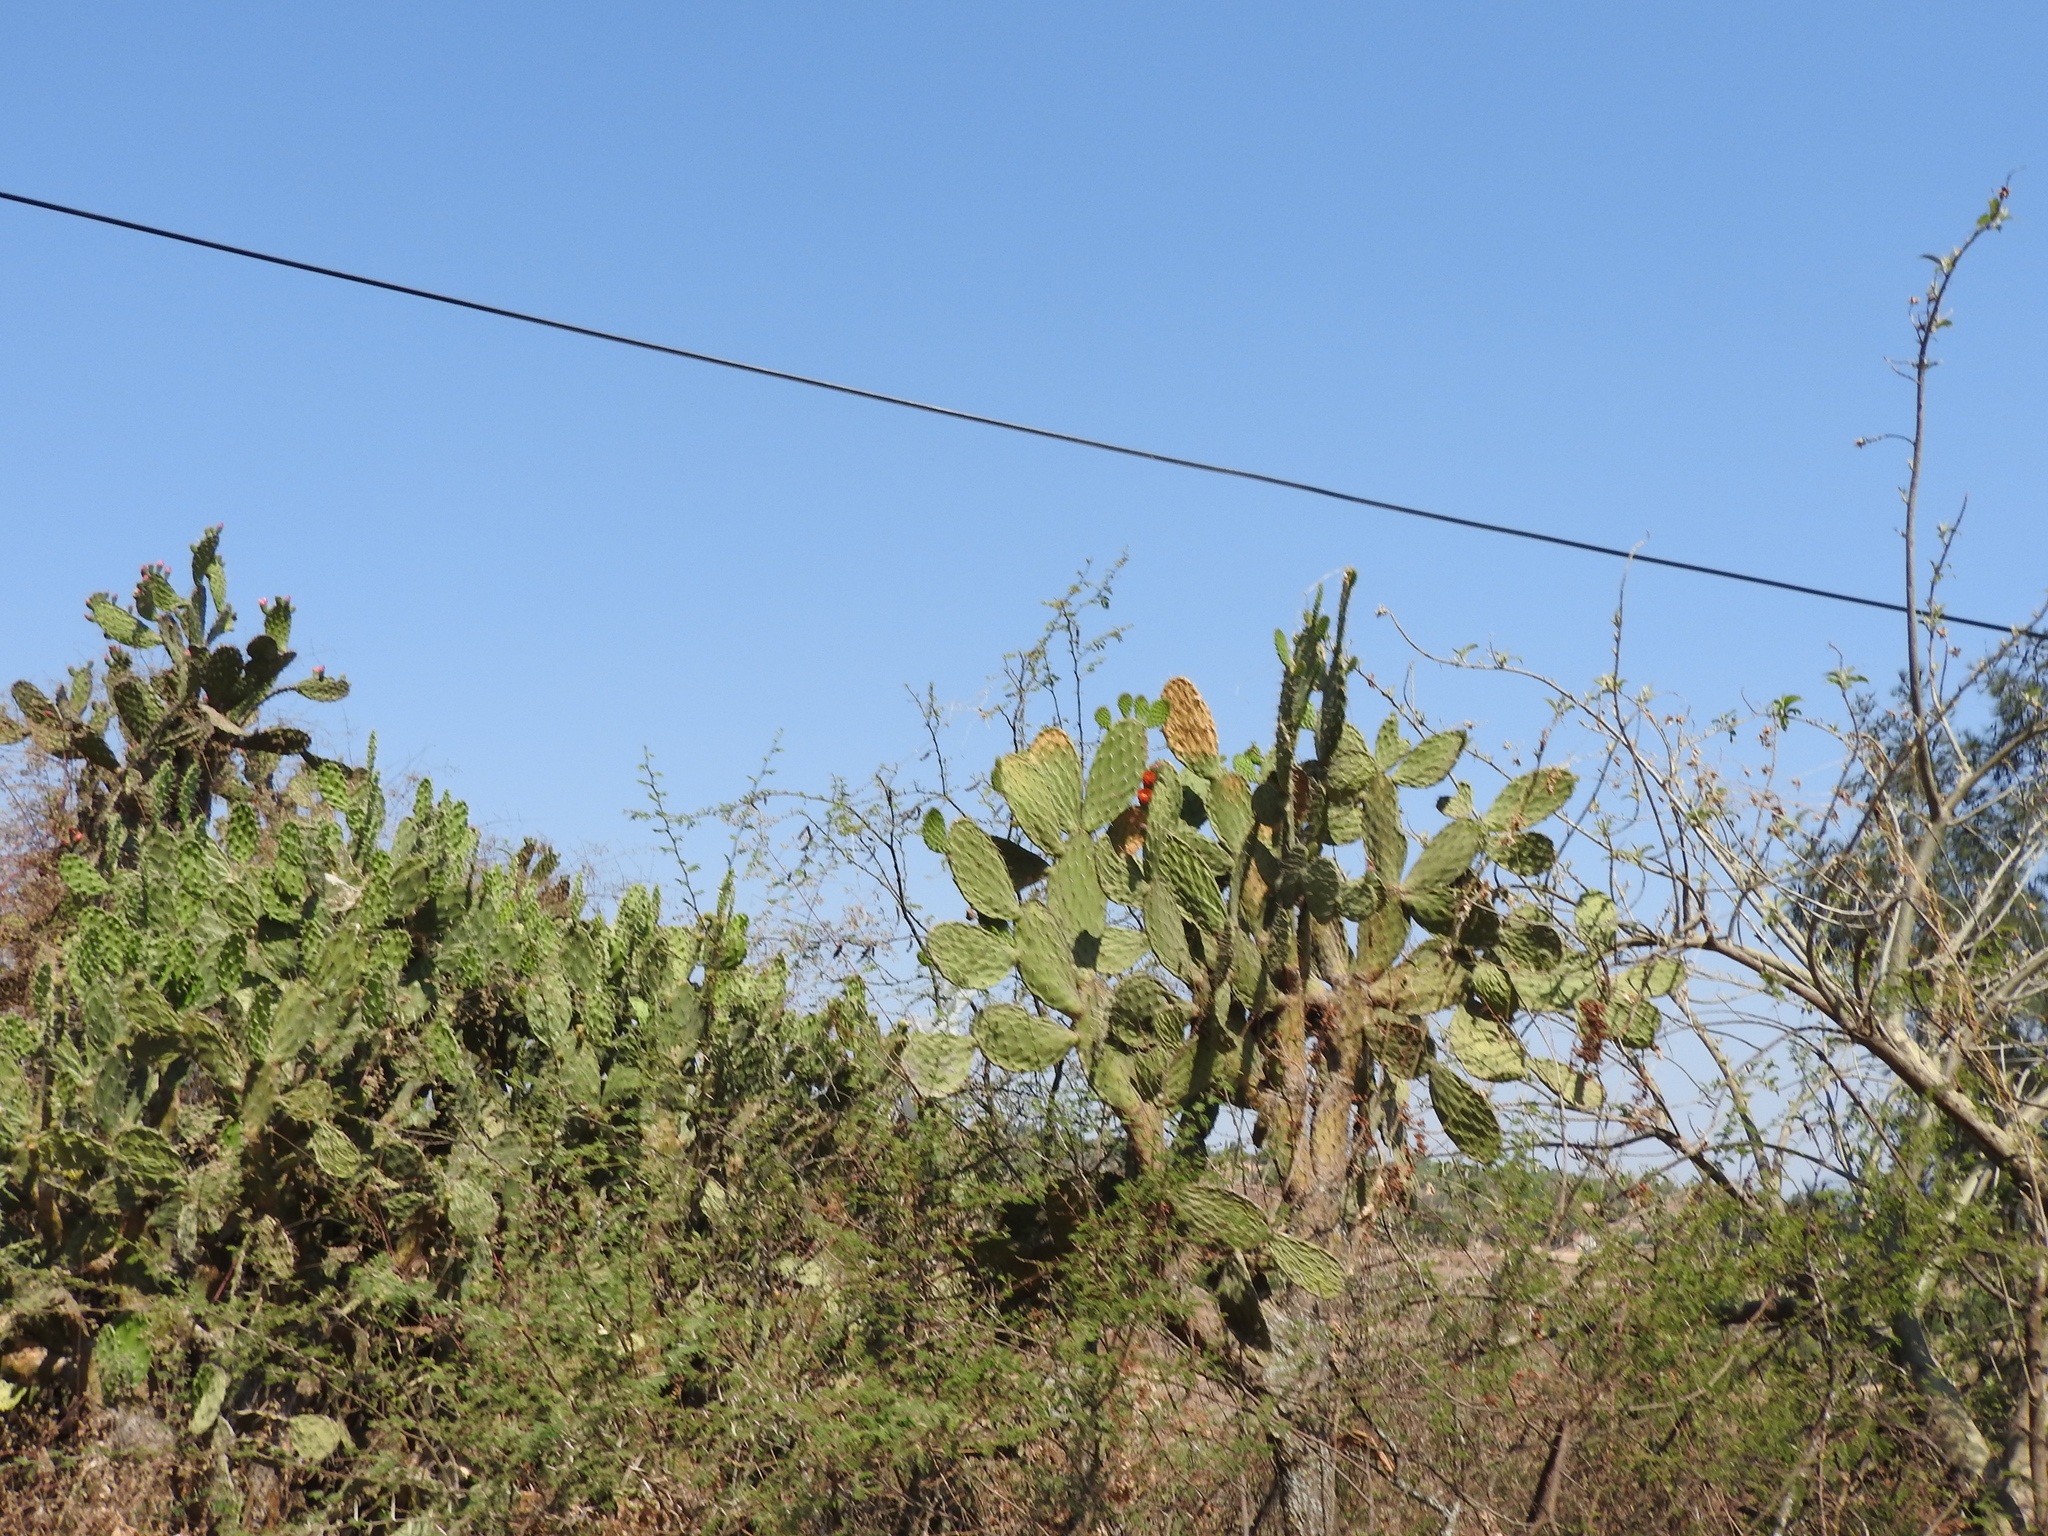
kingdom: Plantae
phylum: Tracheophyta
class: Magnoliopsida
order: Caryophyllales
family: Cactaceae
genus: Opuntia
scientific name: Opuntia
